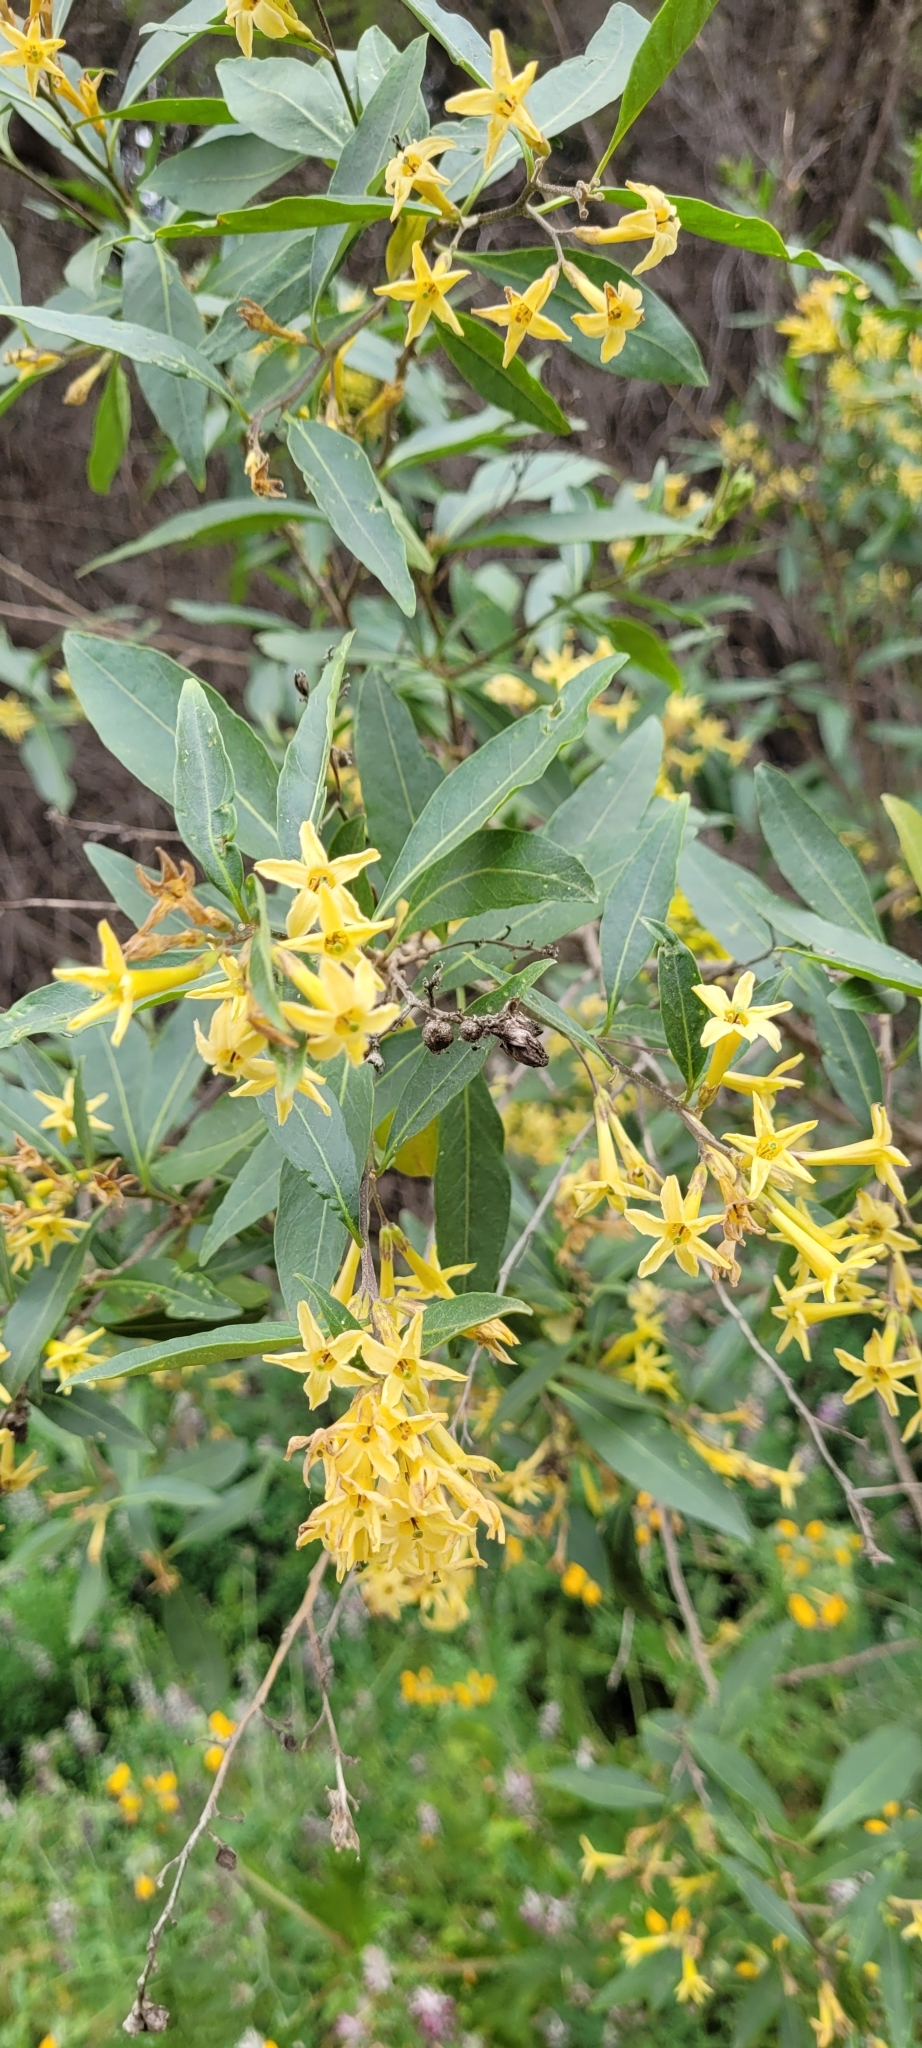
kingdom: Plantae
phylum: Tracheophyta
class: Magnoliopsida
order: Solanales
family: Solanaceae
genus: Cestrum
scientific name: Cestrum parqui
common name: Chilean cestrum
